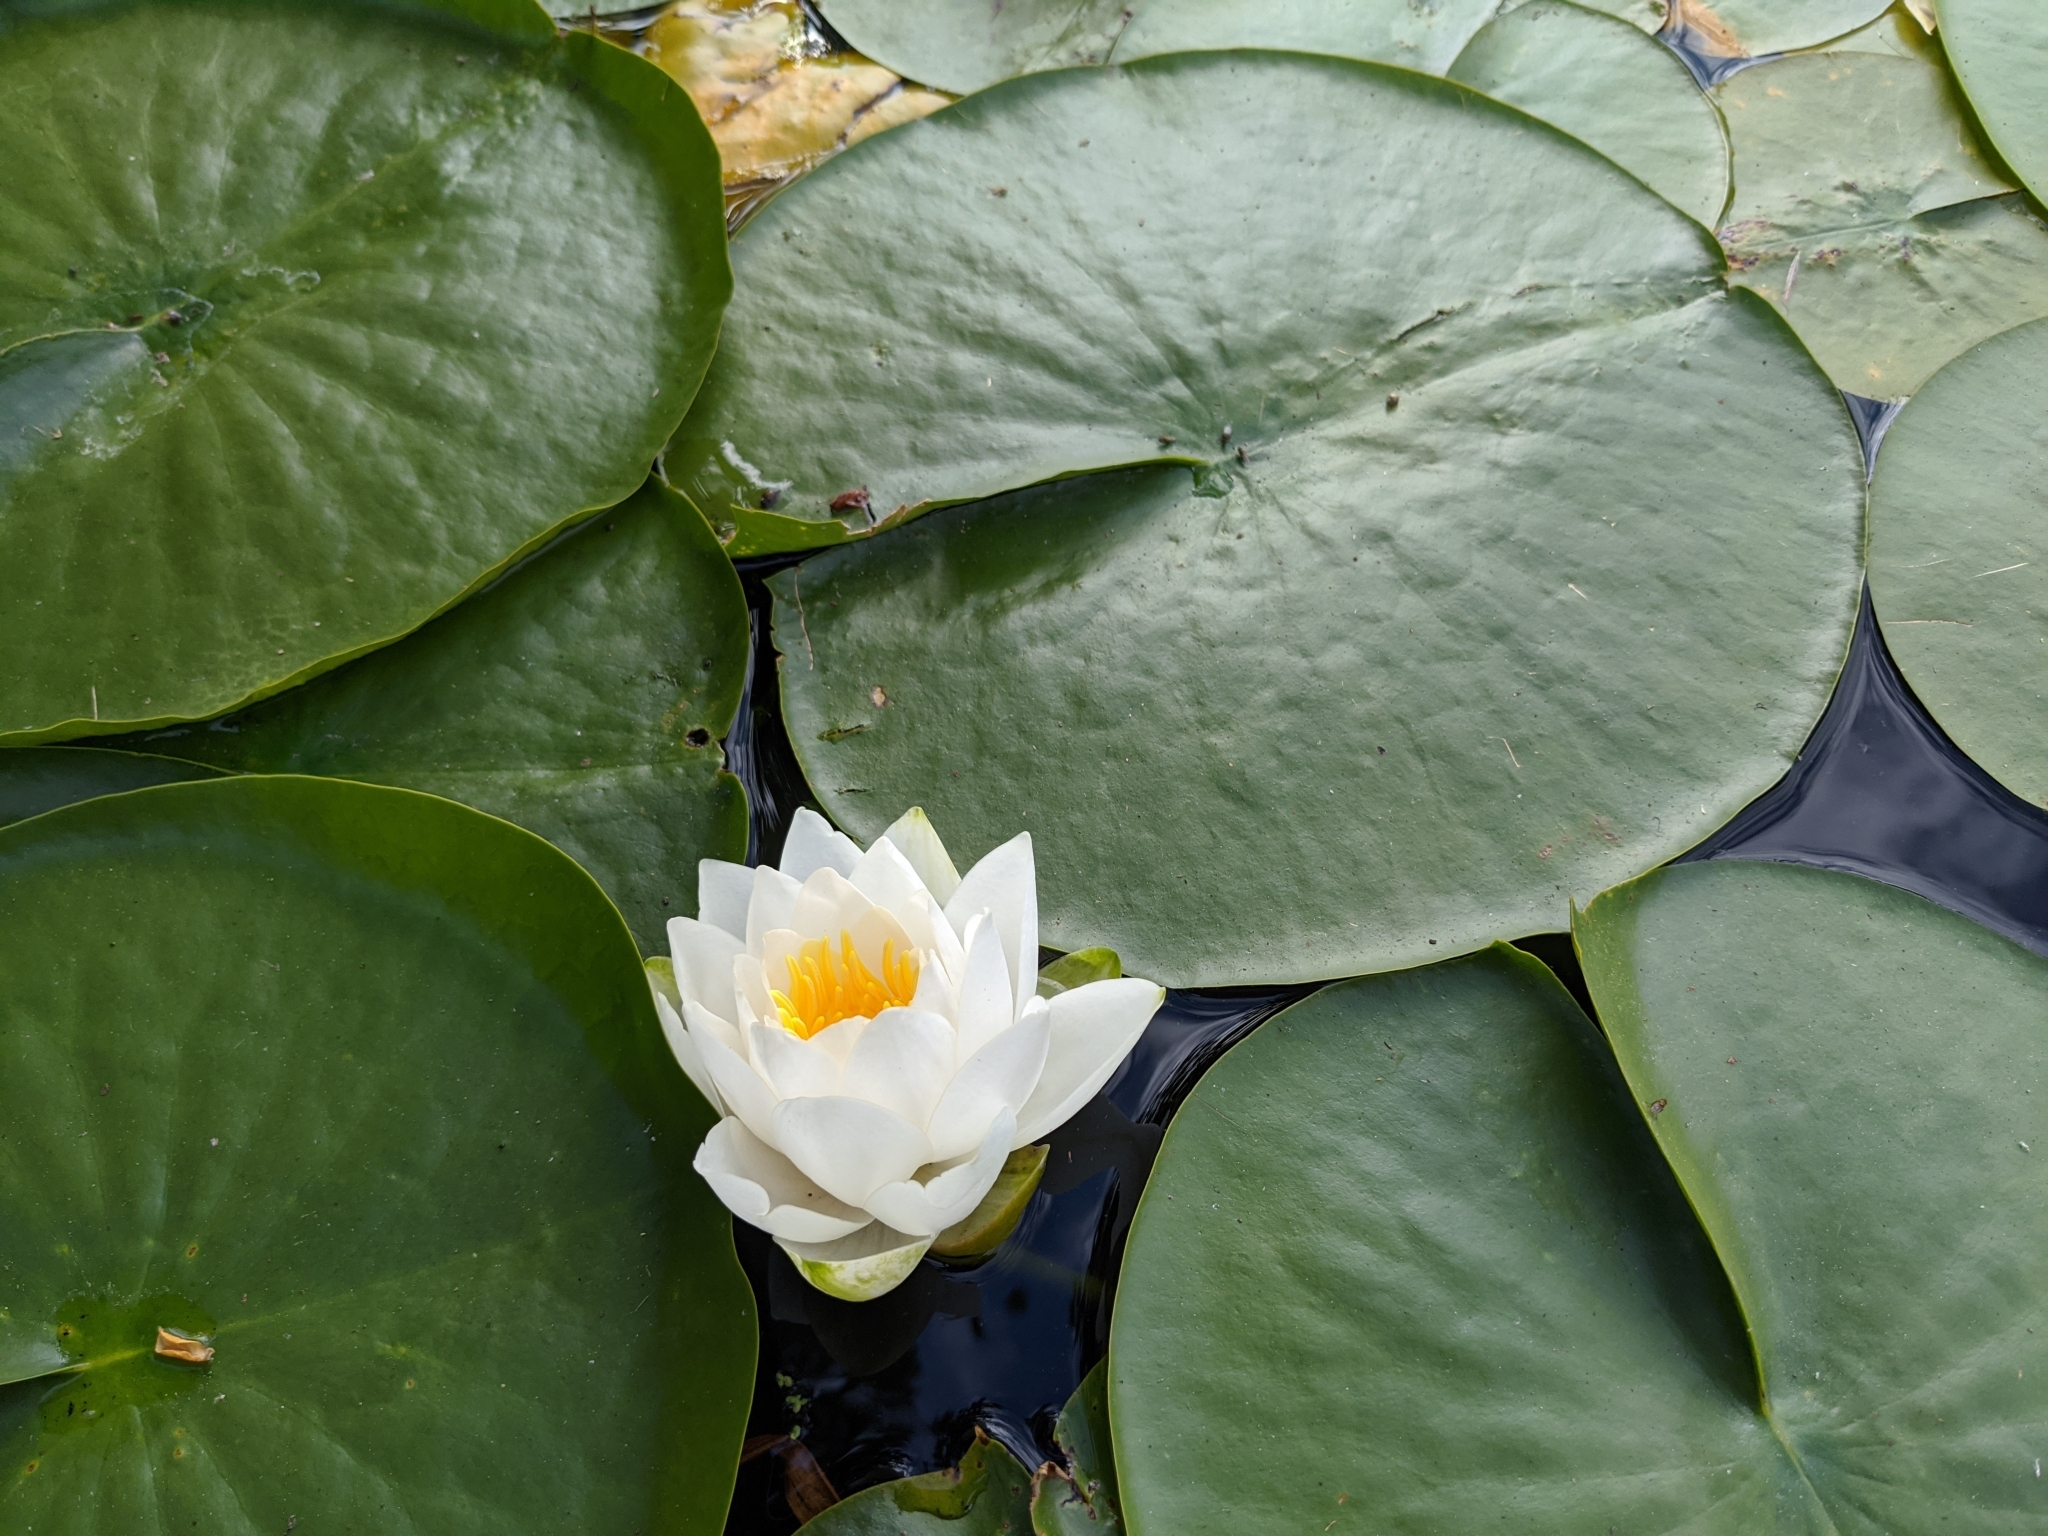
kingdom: Plantae
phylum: Tracheophyta
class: Magnoliopsida
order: Nymphaeales
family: Nymphaeaceae
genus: Nymphaea
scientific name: Nymphaea odorata
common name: Fragrant water-lily
